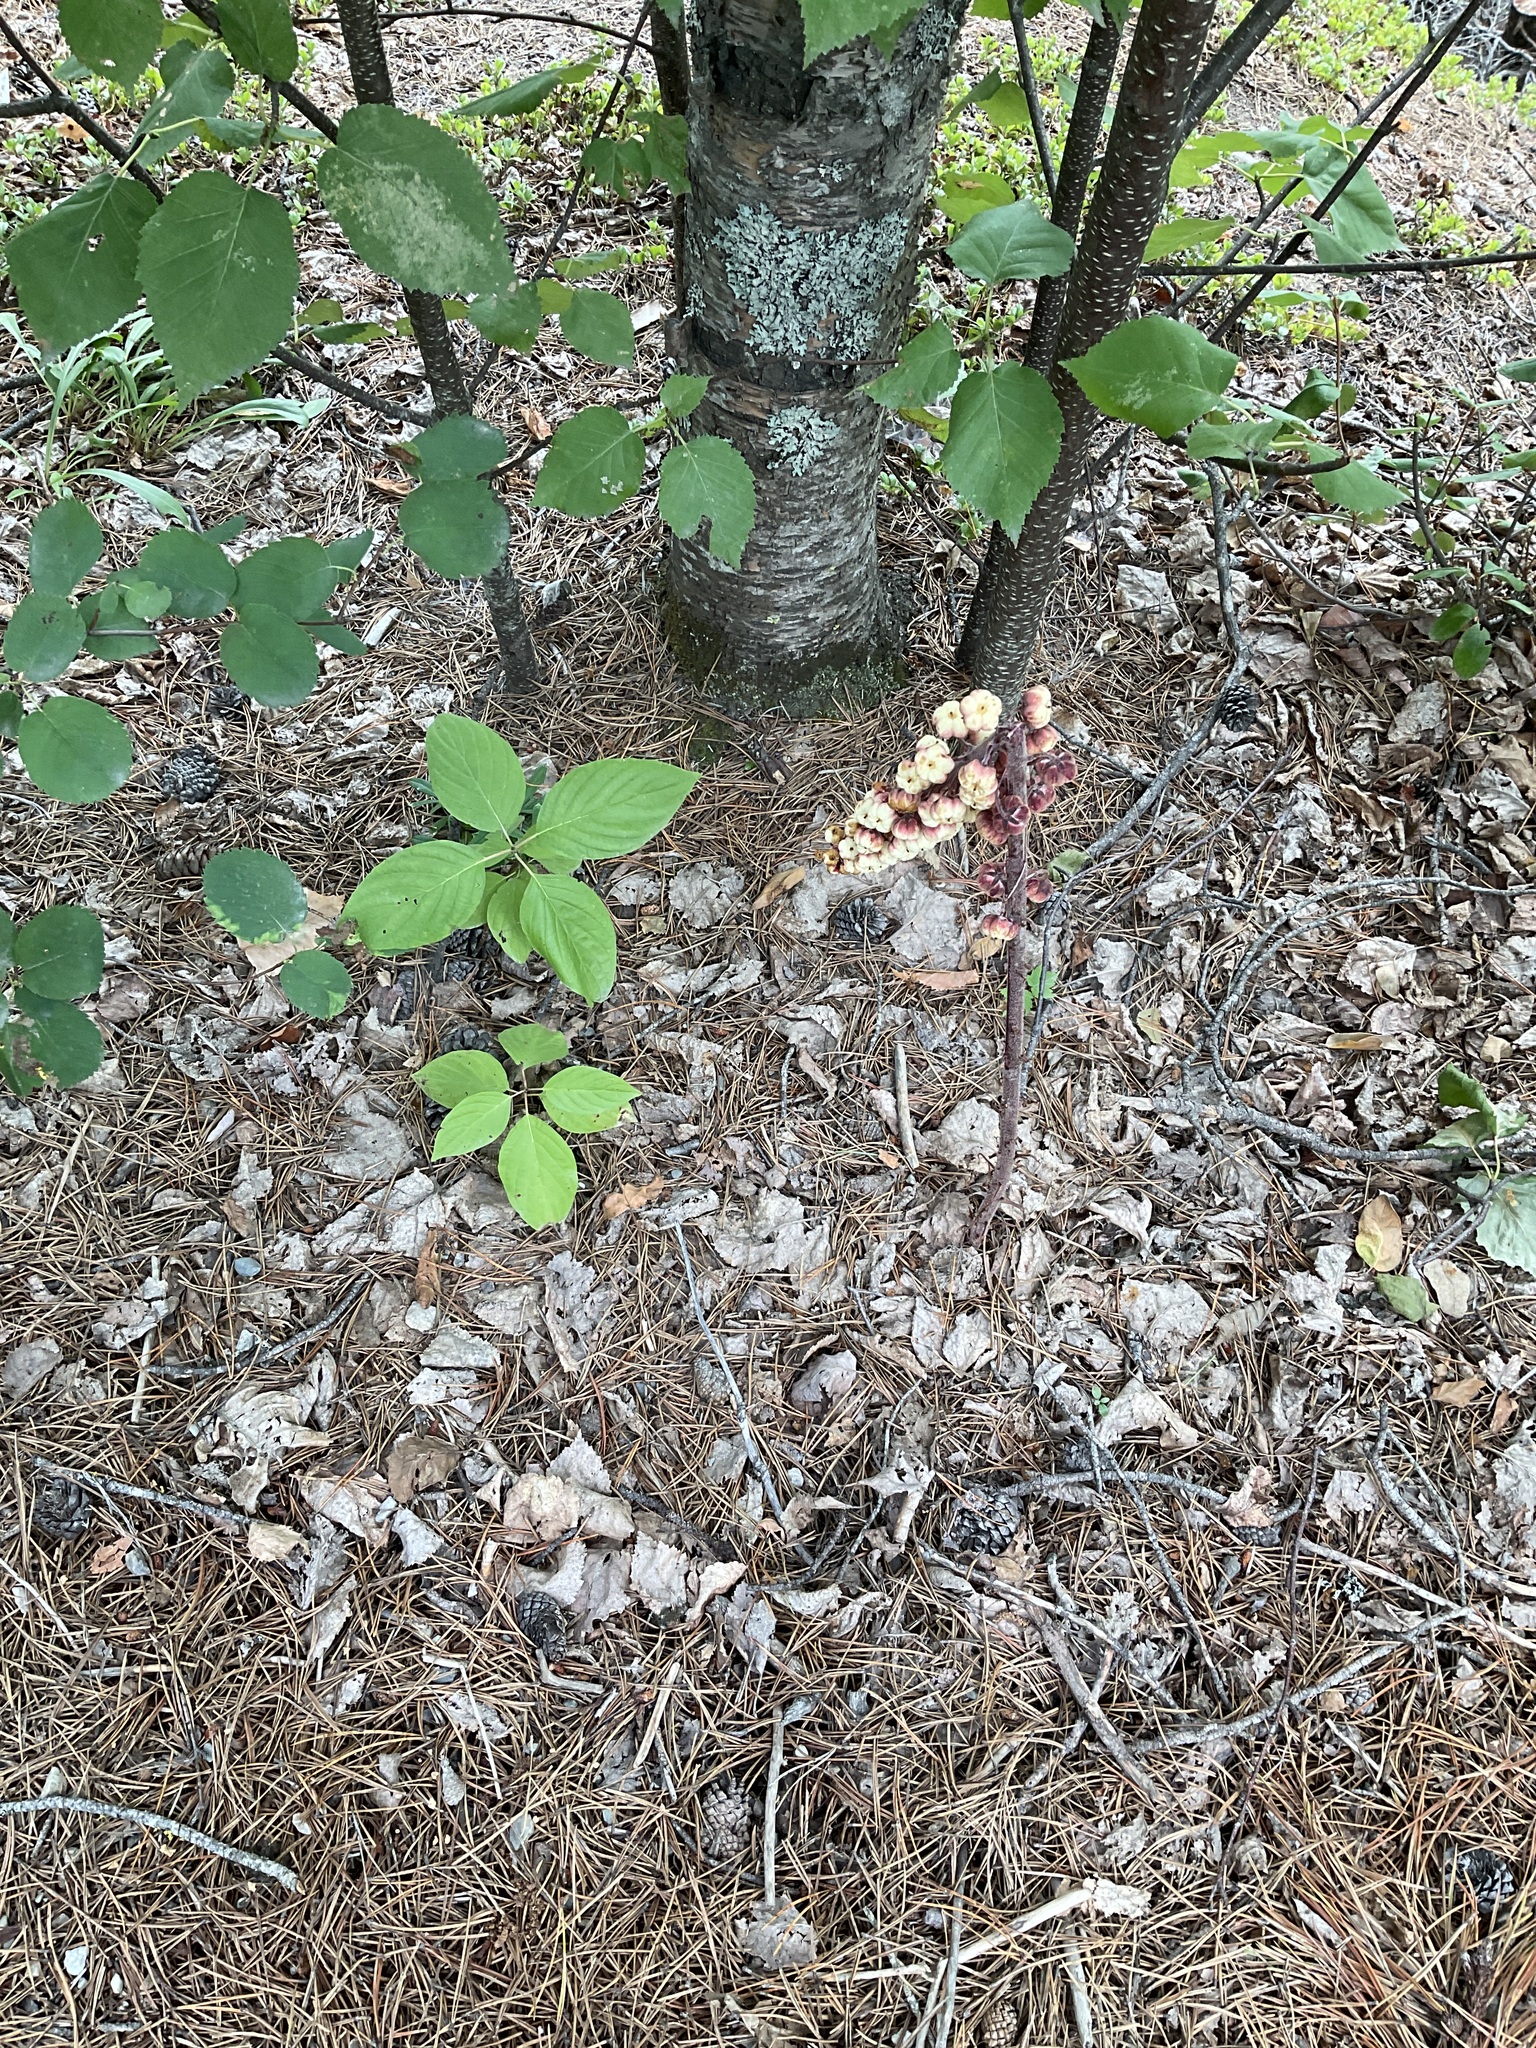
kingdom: Plantae
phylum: Tracheophyta
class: Magnoliopsida
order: Ericales
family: Ericaceae
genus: Pterospora
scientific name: Pterospora andromedea
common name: Giant bird's-nest
